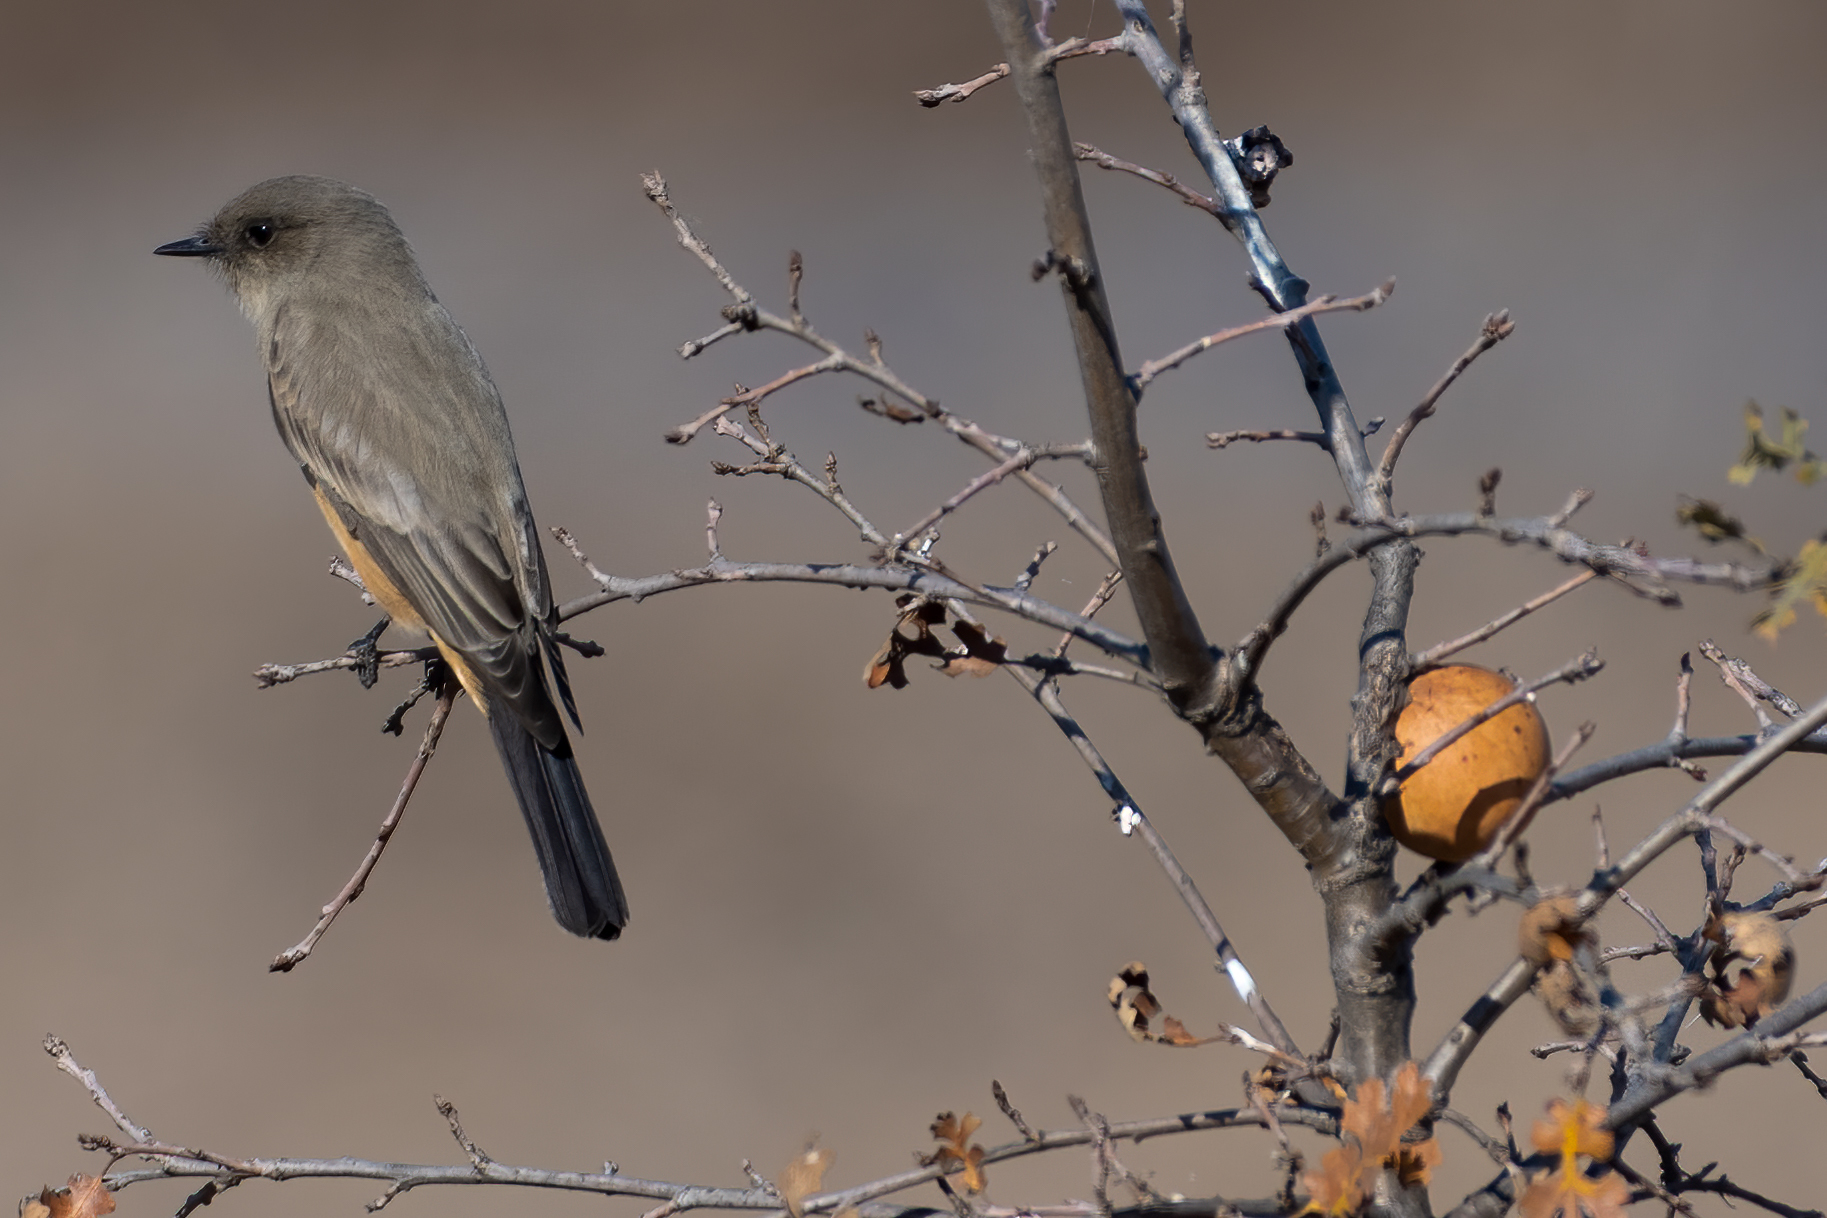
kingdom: Animalia
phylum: Chordata
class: Aves
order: Passeriformes
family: Tyrannidae
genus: Sayornis
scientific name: Sayornis saya
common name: Say's phoebe
